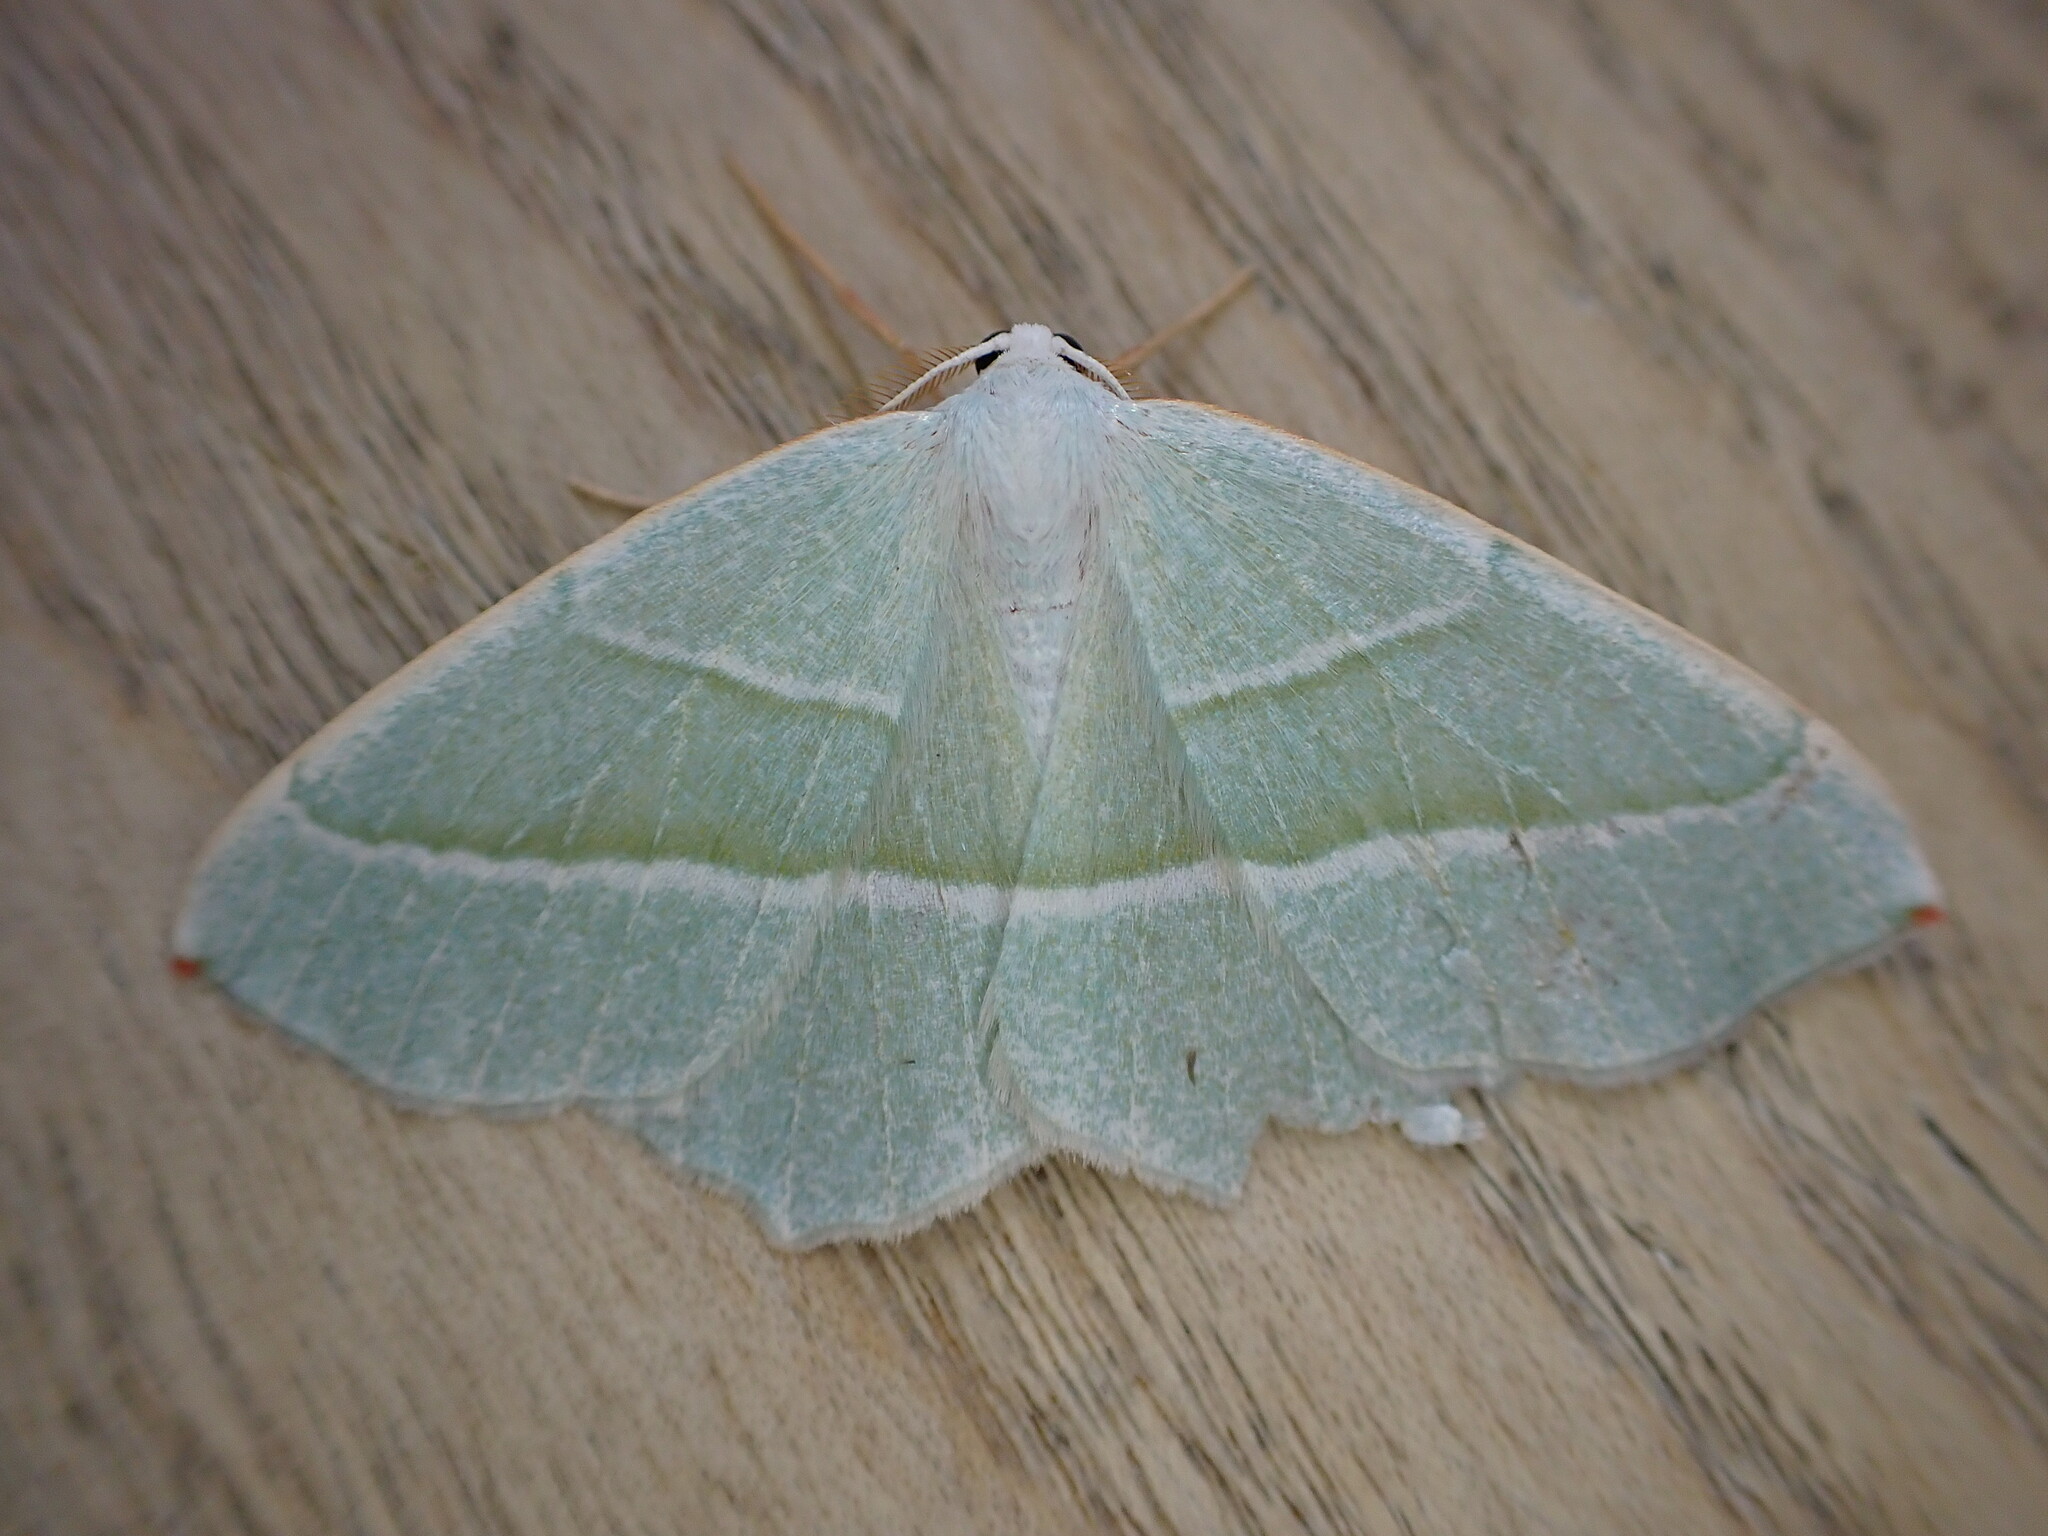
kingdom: Animalia
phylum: Arthropoda
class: Insecta
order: Lepidoptera
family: Geometridae
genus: Campaea
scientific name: Campaea margaritaria
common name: Light emerald
